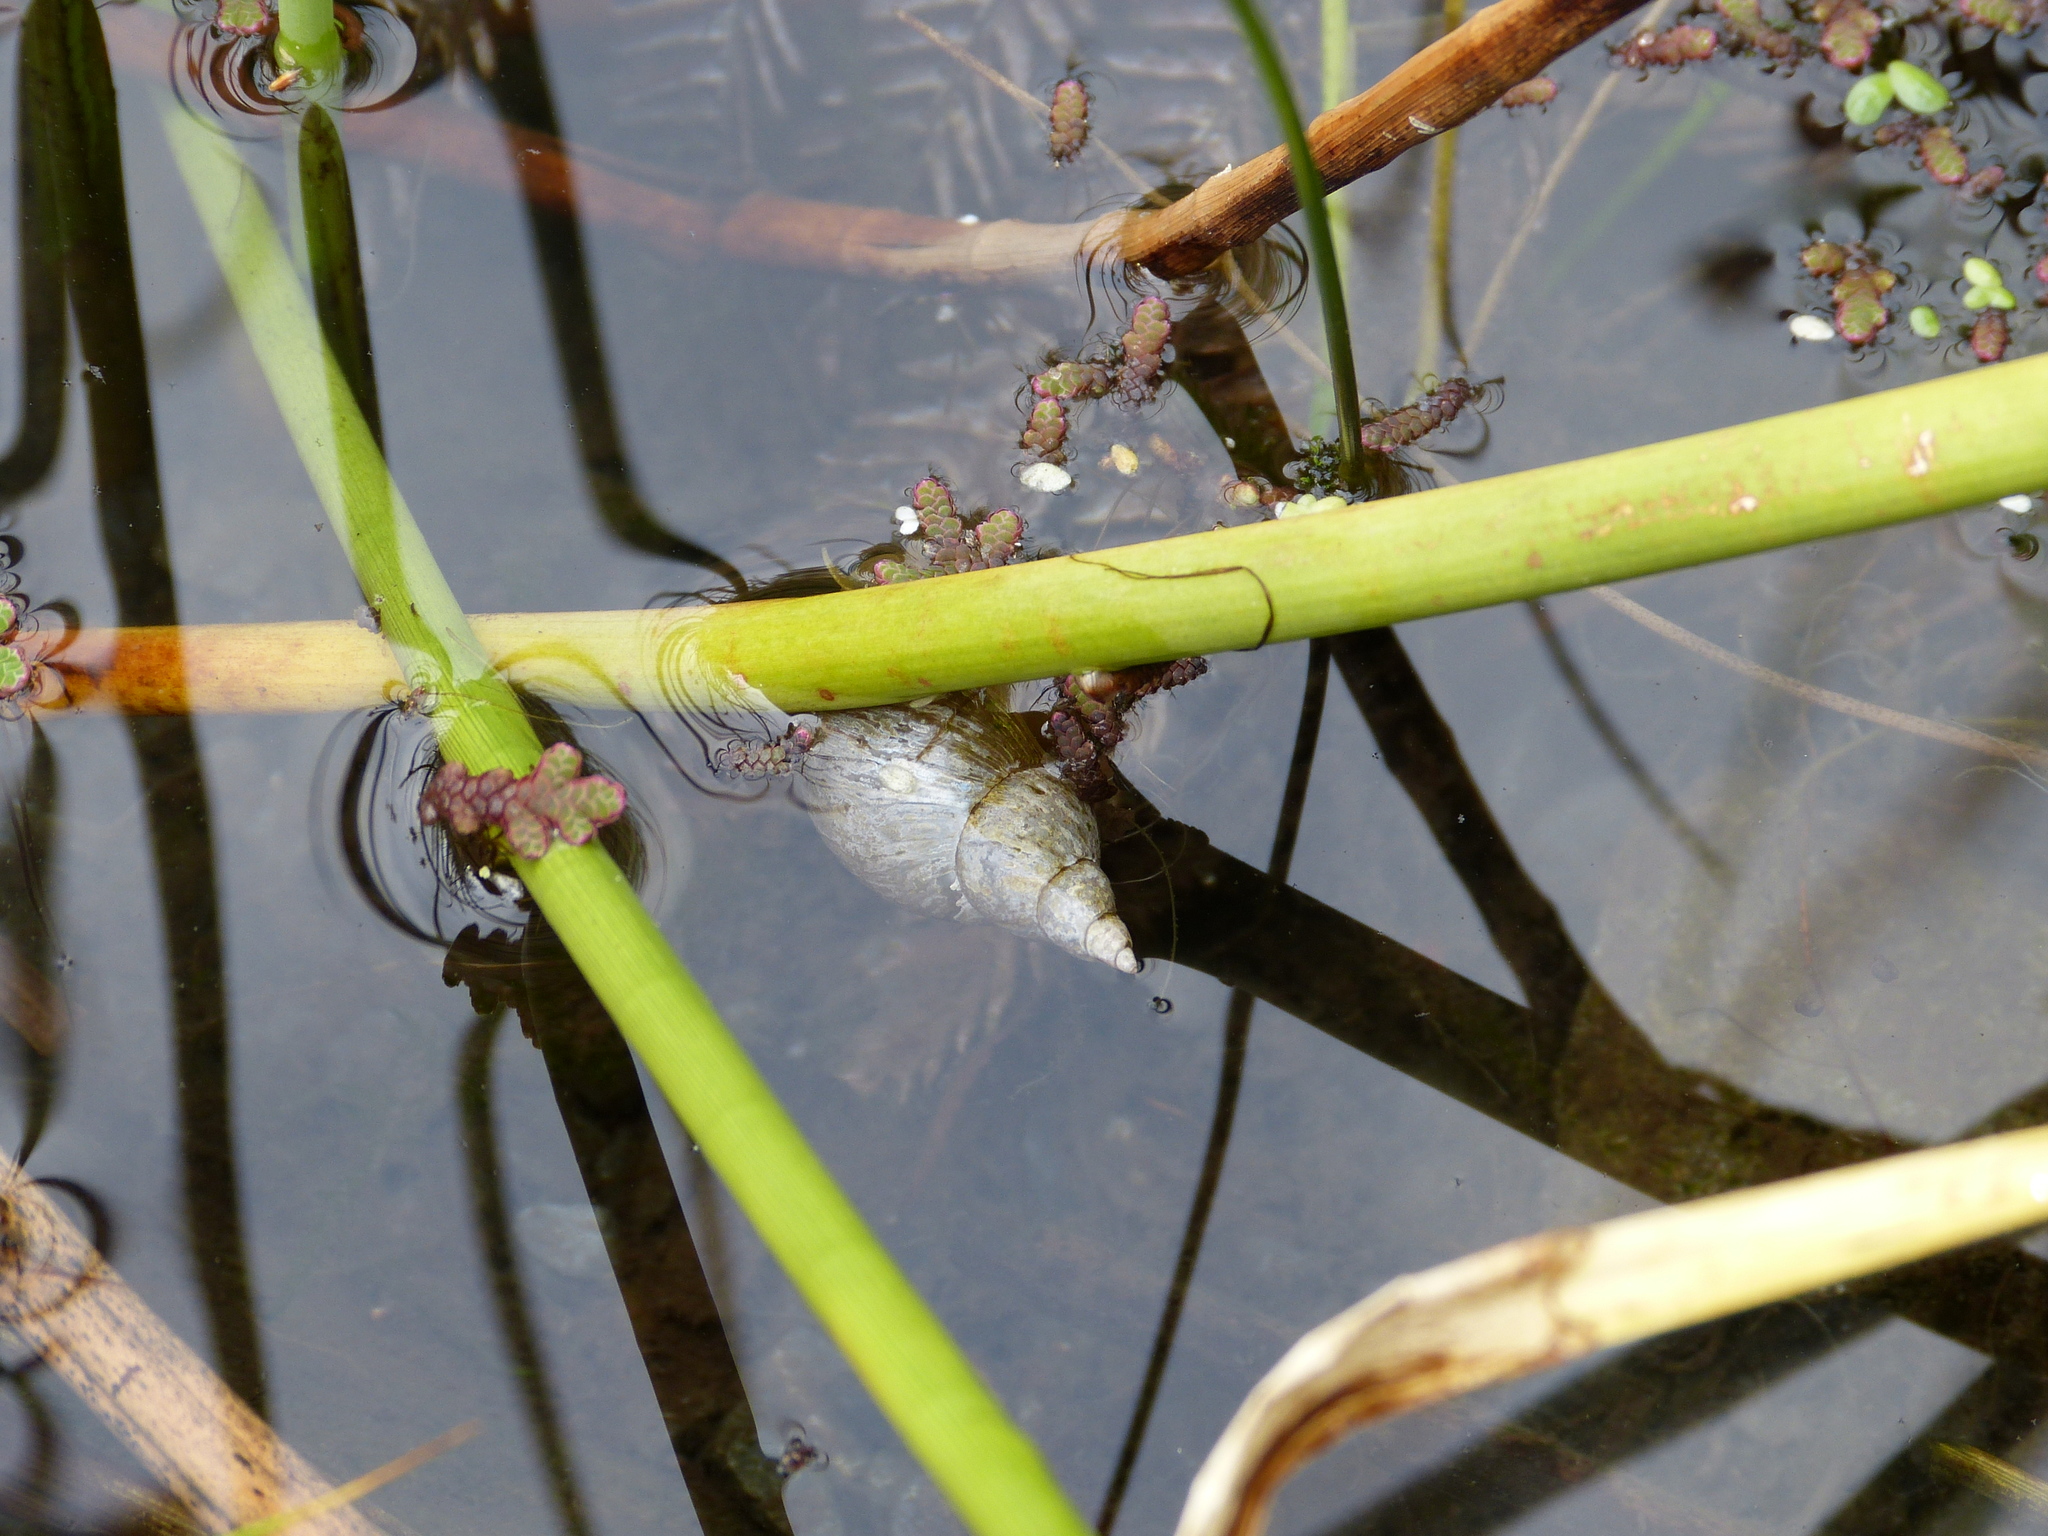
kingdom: Animalia
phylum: Mollusca
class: Gastropoda
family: Lymnaeidae
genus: Lymnaea
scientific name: Lymnaea stagnalis
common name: Great pond snail
